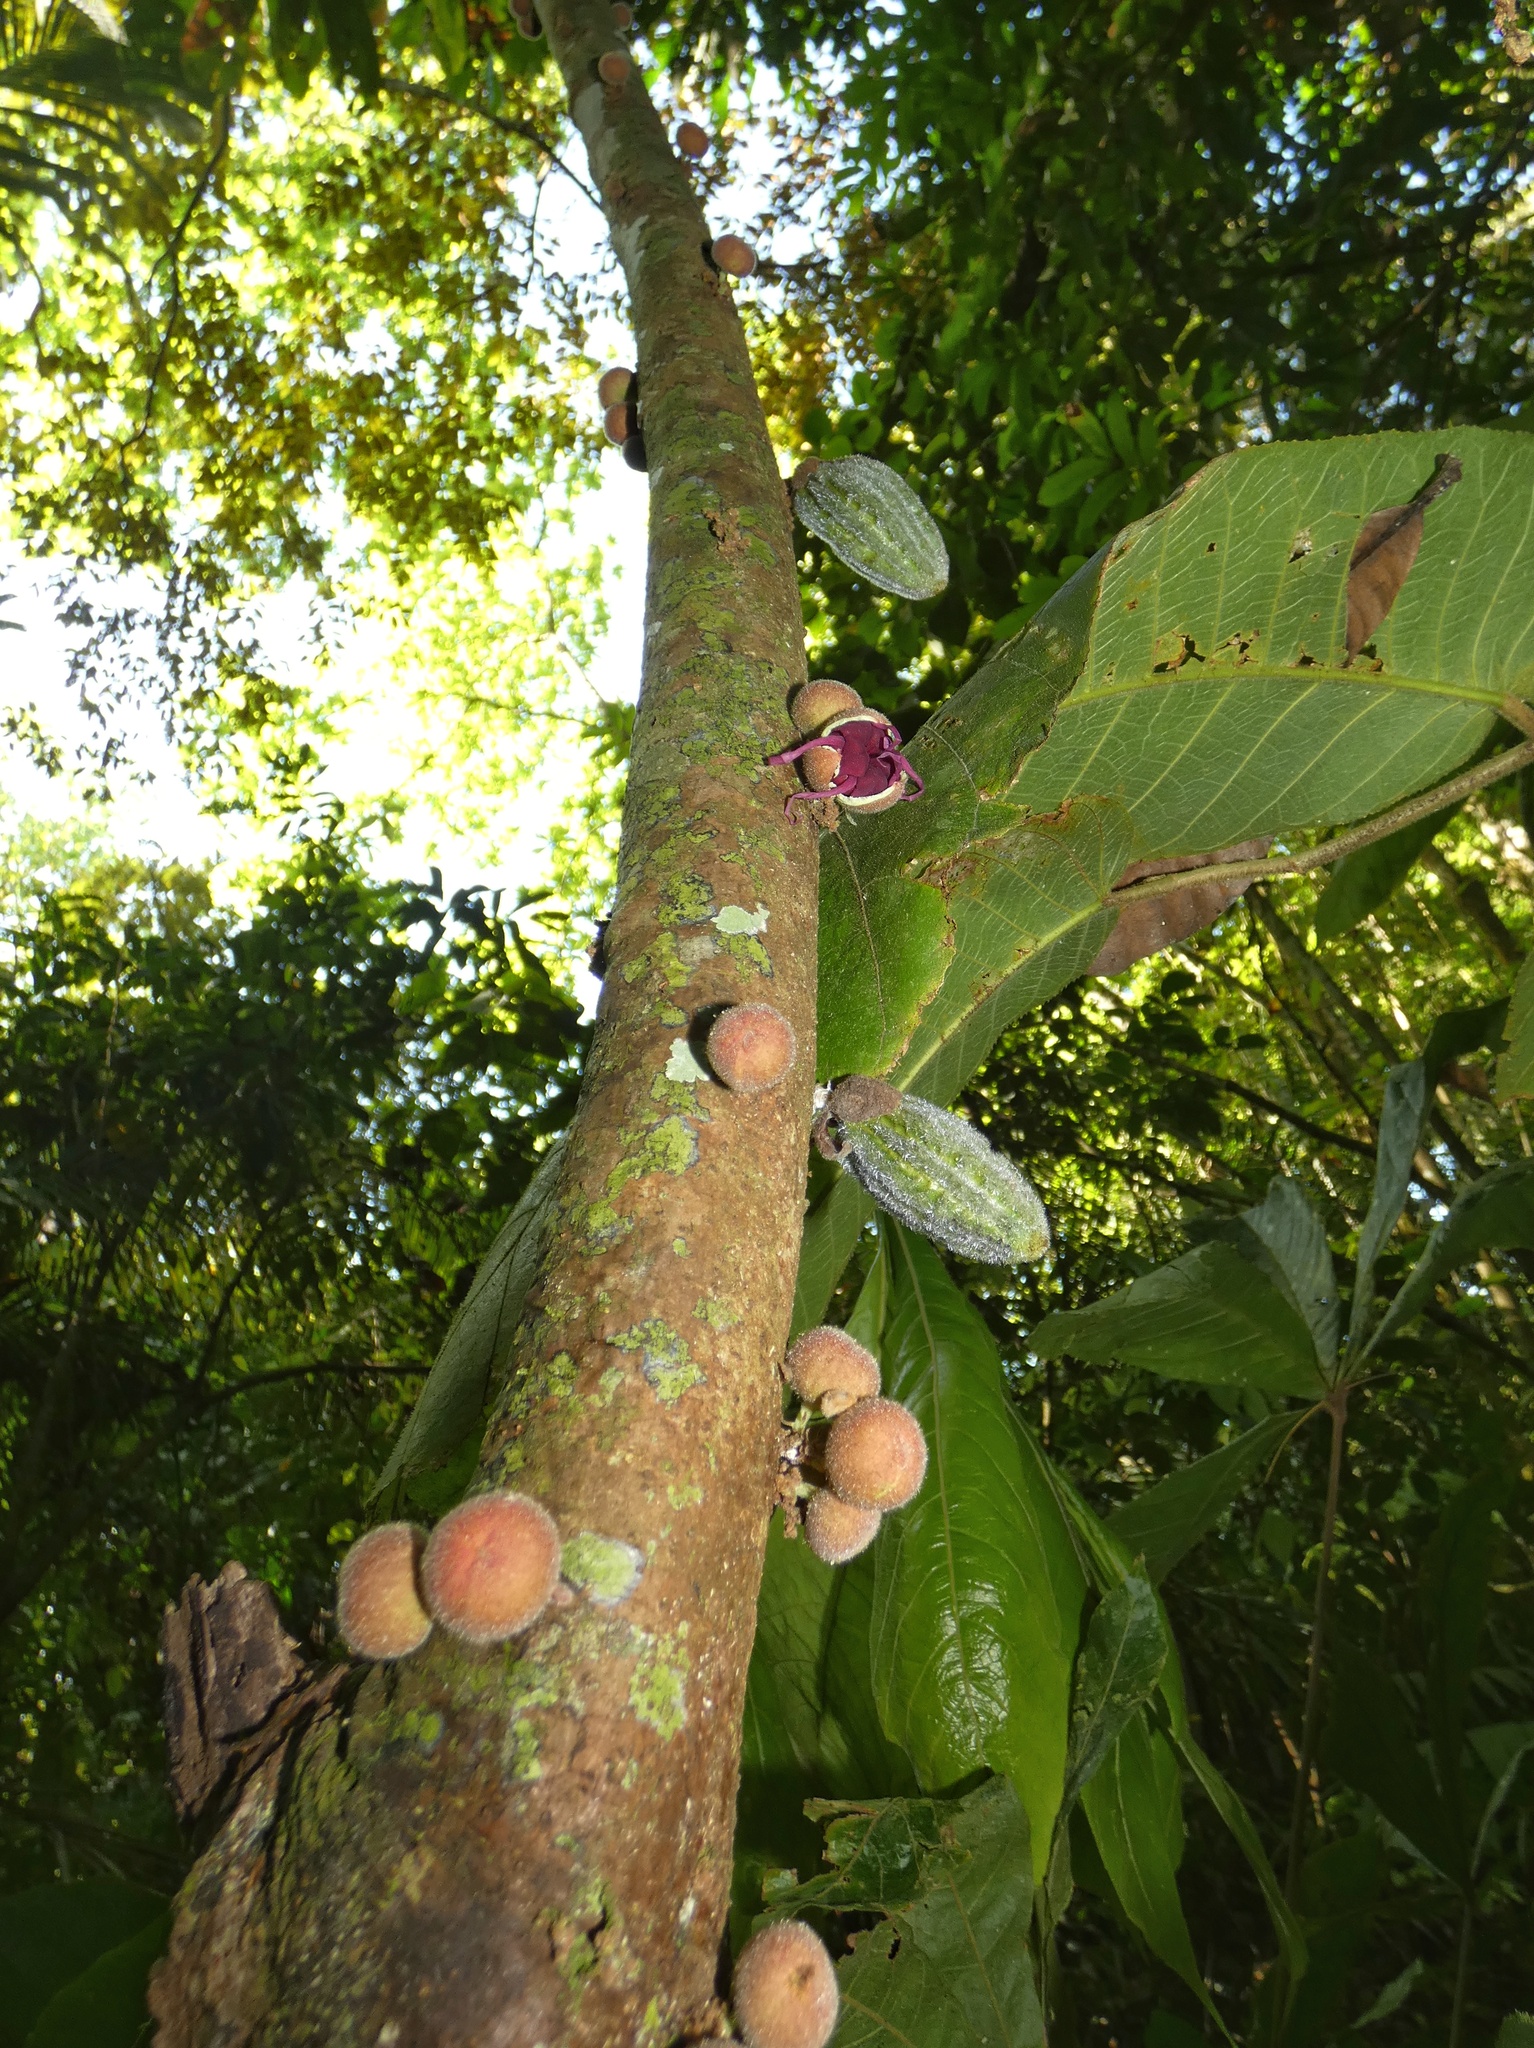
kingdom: Plantae
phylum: Tracheophyta
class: Magnoliopsida
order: Malvales
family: Malvaceae
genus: Herrania
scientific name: Herrania purpurea
